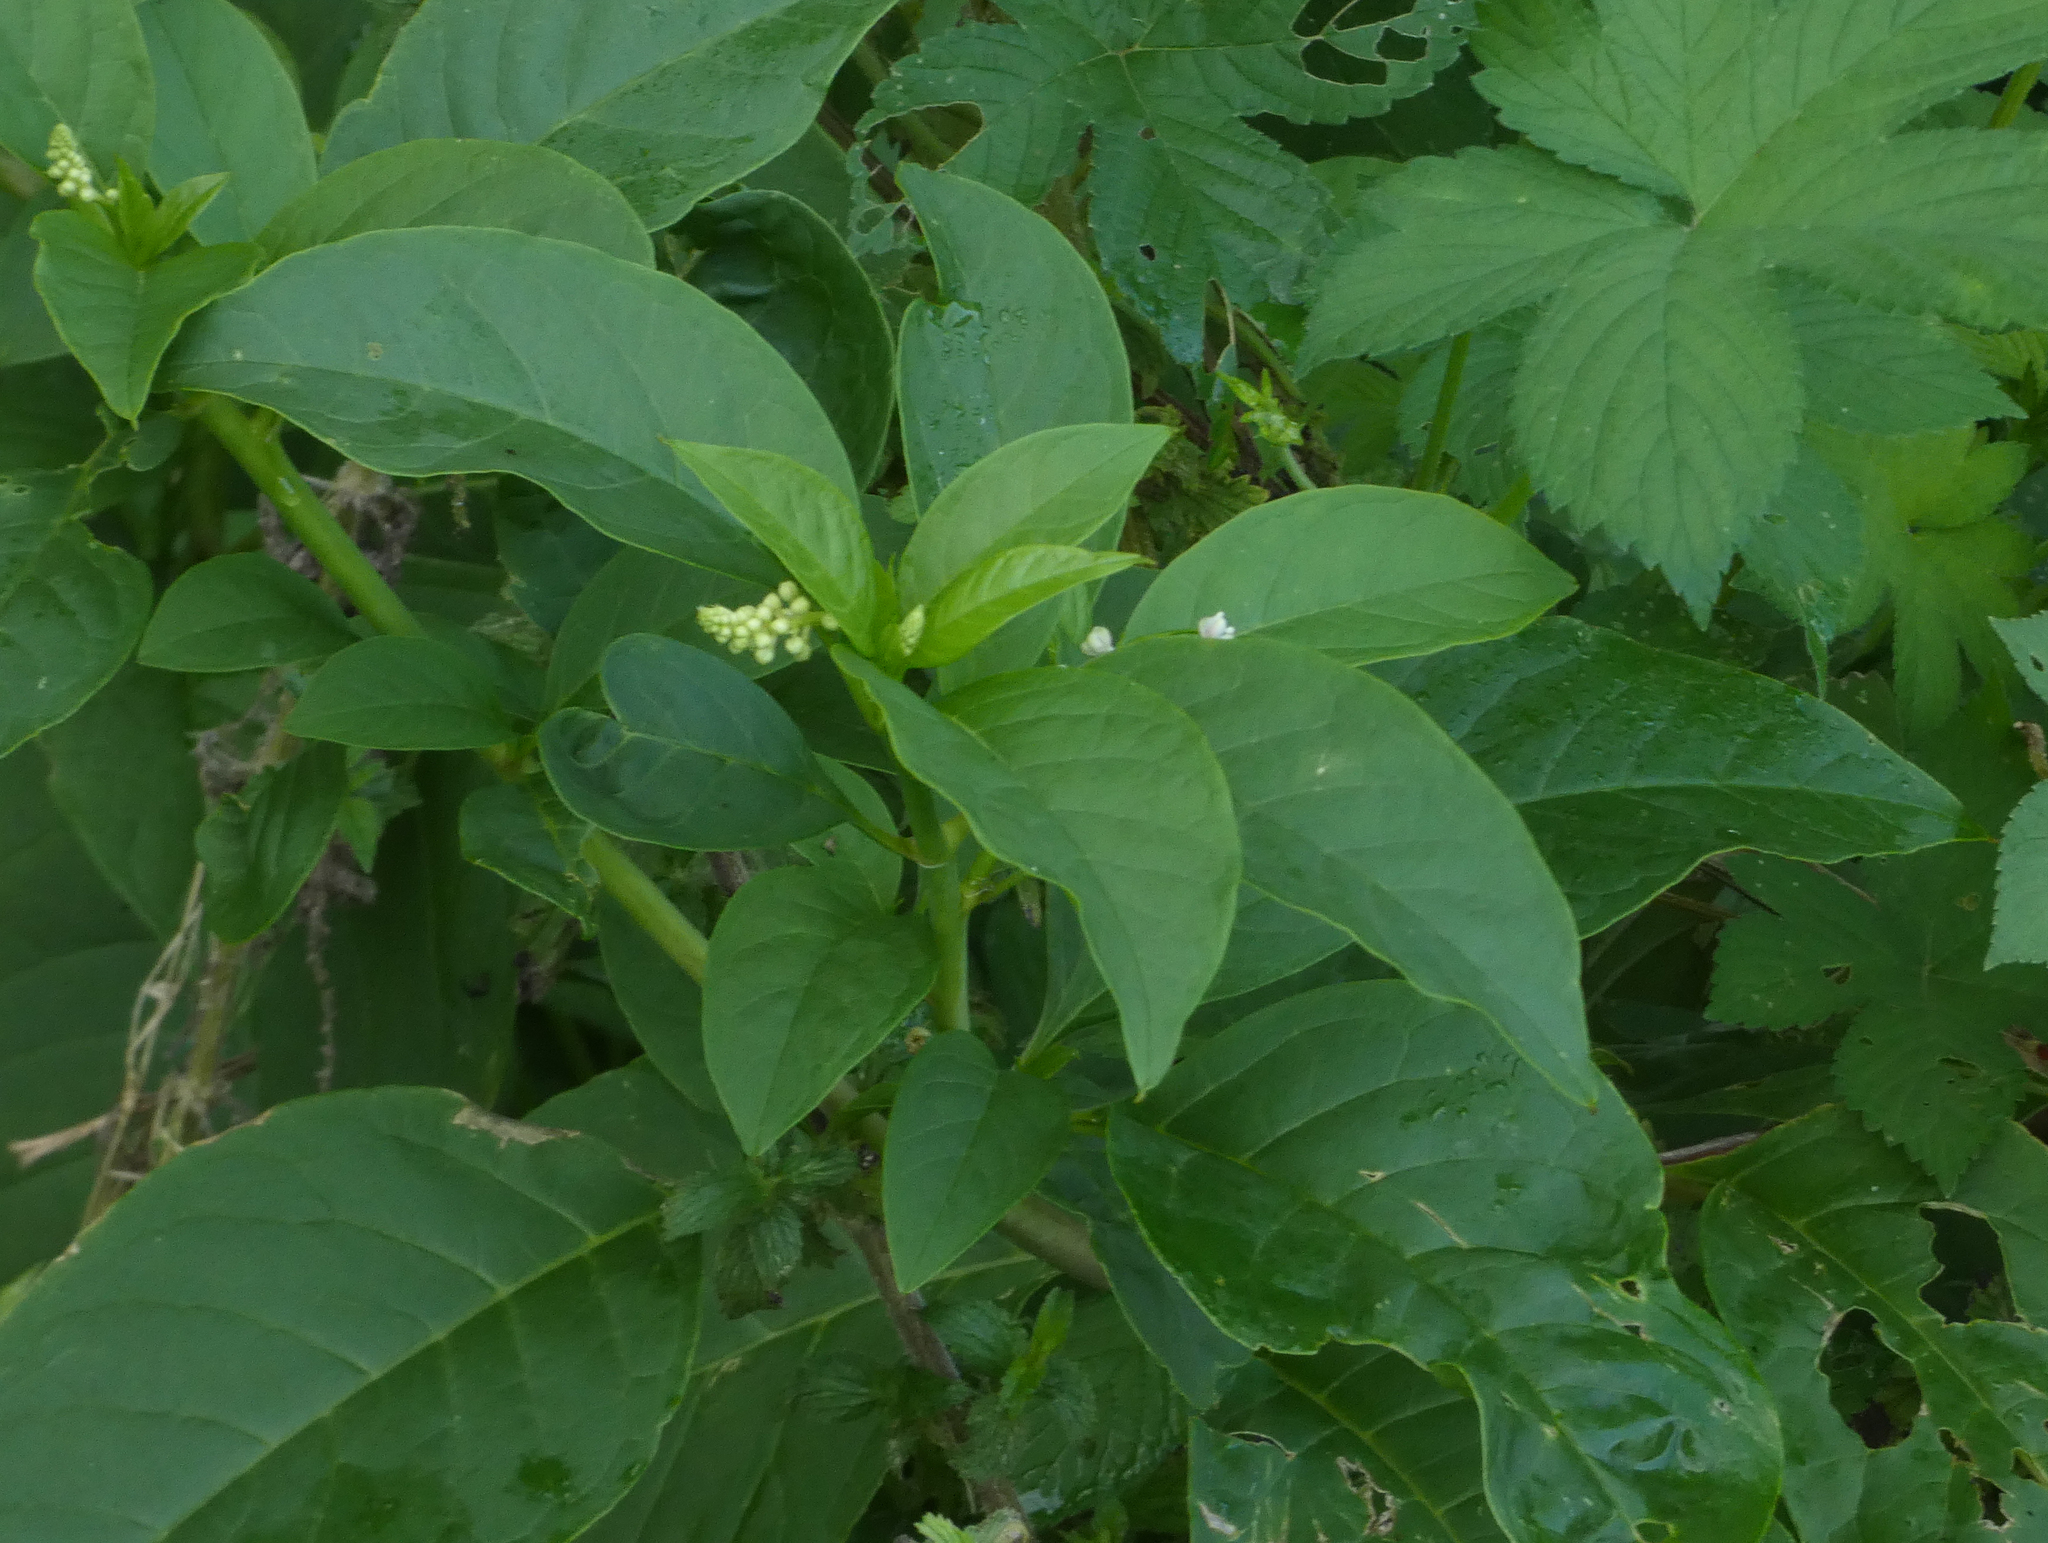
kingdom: Plantae
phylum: Tracheophyta
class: Magnoliopsida
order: Caryophyllales
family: Phytolaccaceae
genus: Phytolacca
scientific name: Phytolacca americana
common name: American pokeweed
